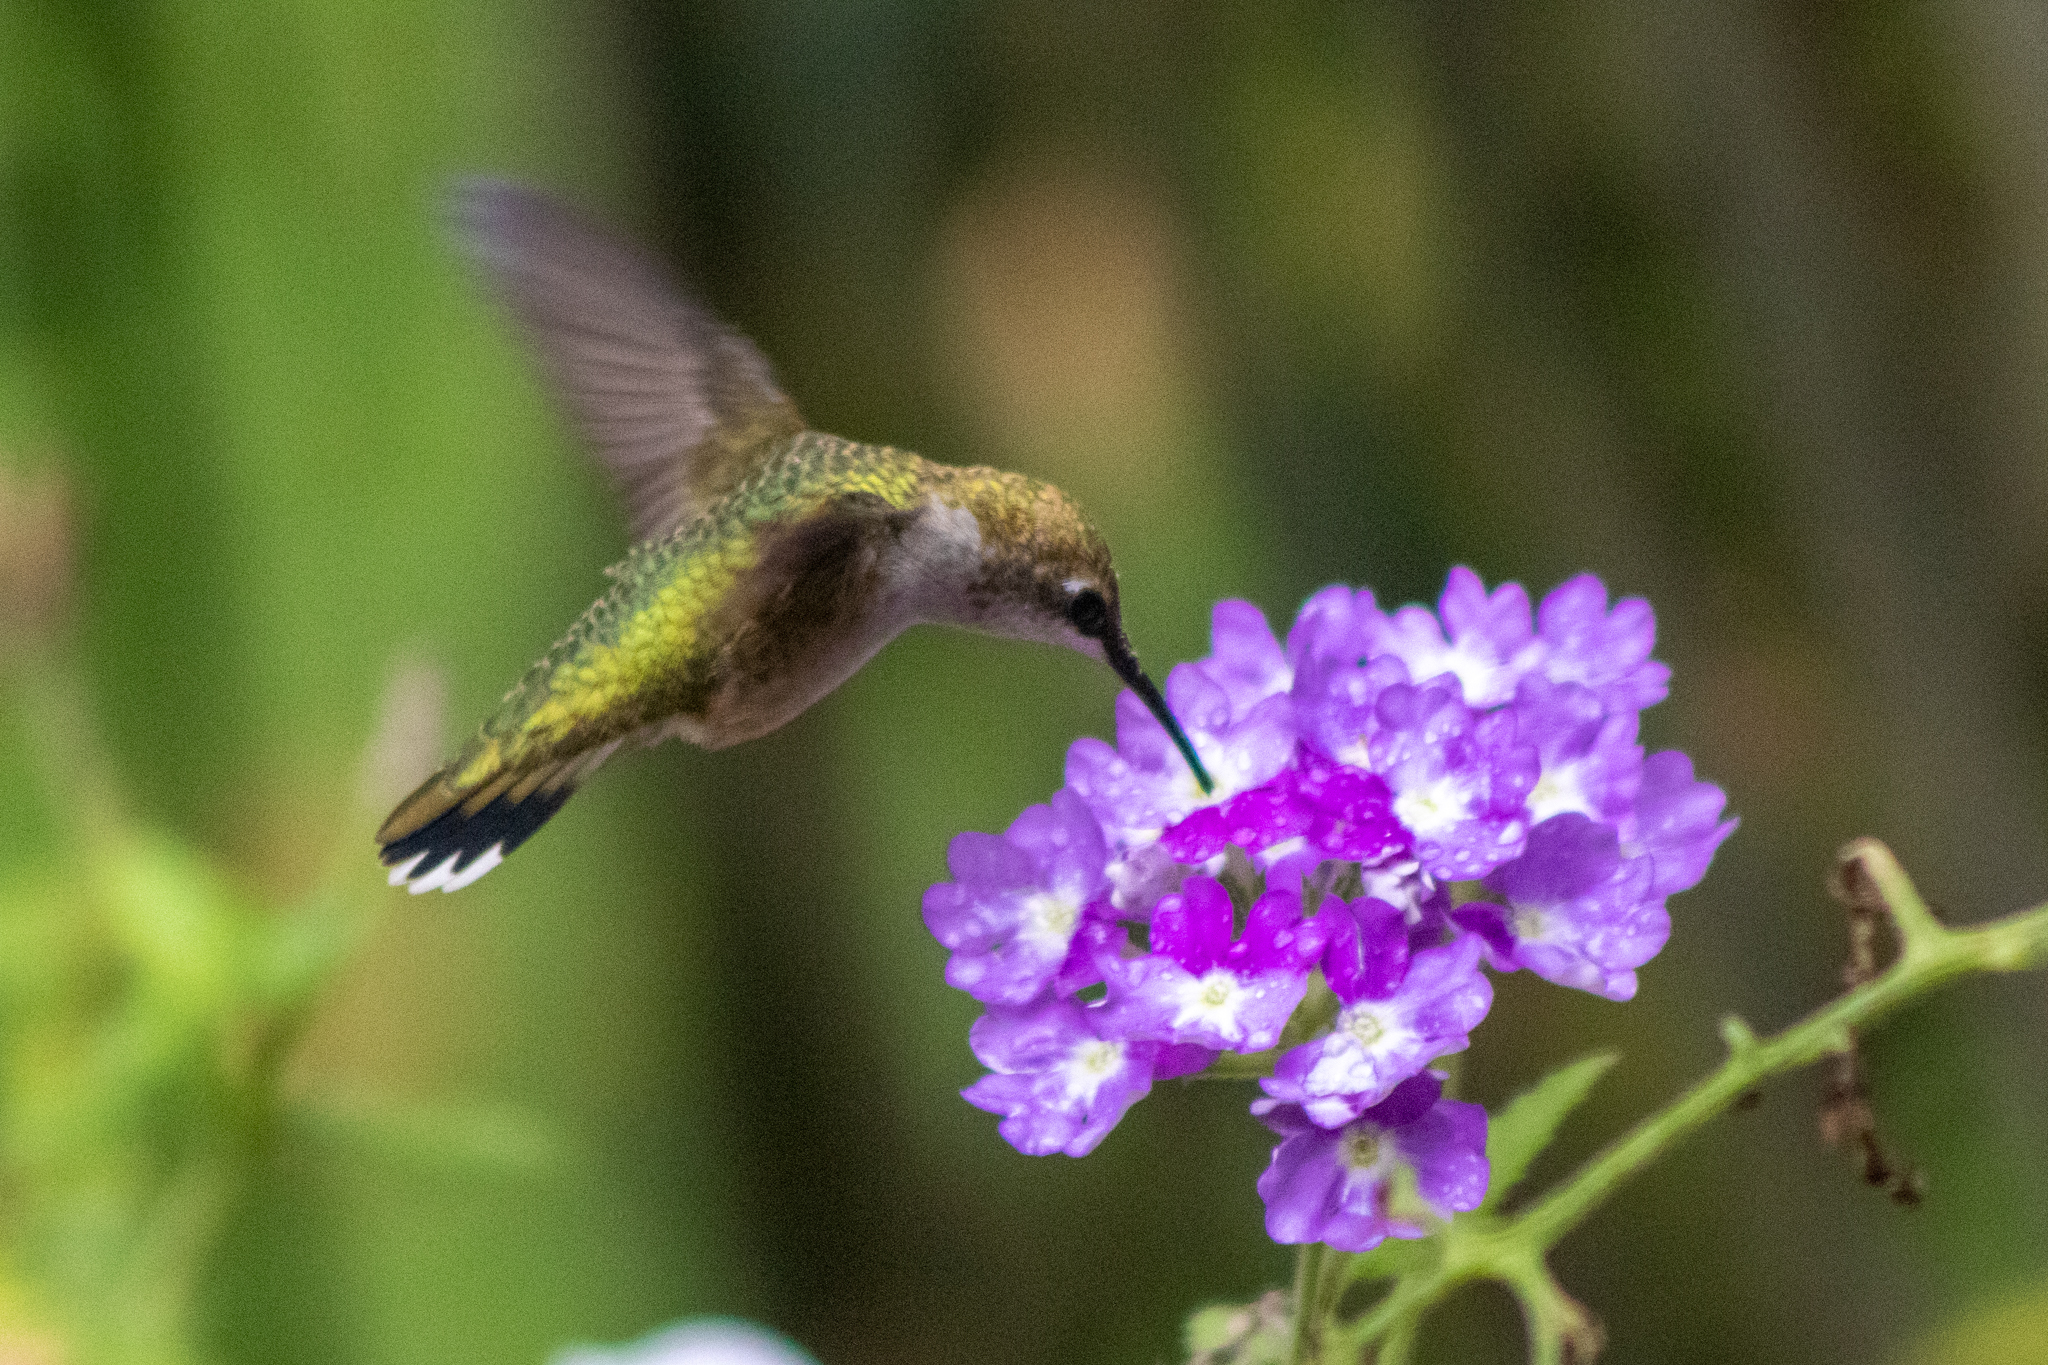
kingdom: Animalia
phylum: Chordata
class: Aves
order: Apodiformes
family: Trochilidae
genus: Archilochus
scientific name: Archilochus colubris
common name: Ruby-throated hummingbird
